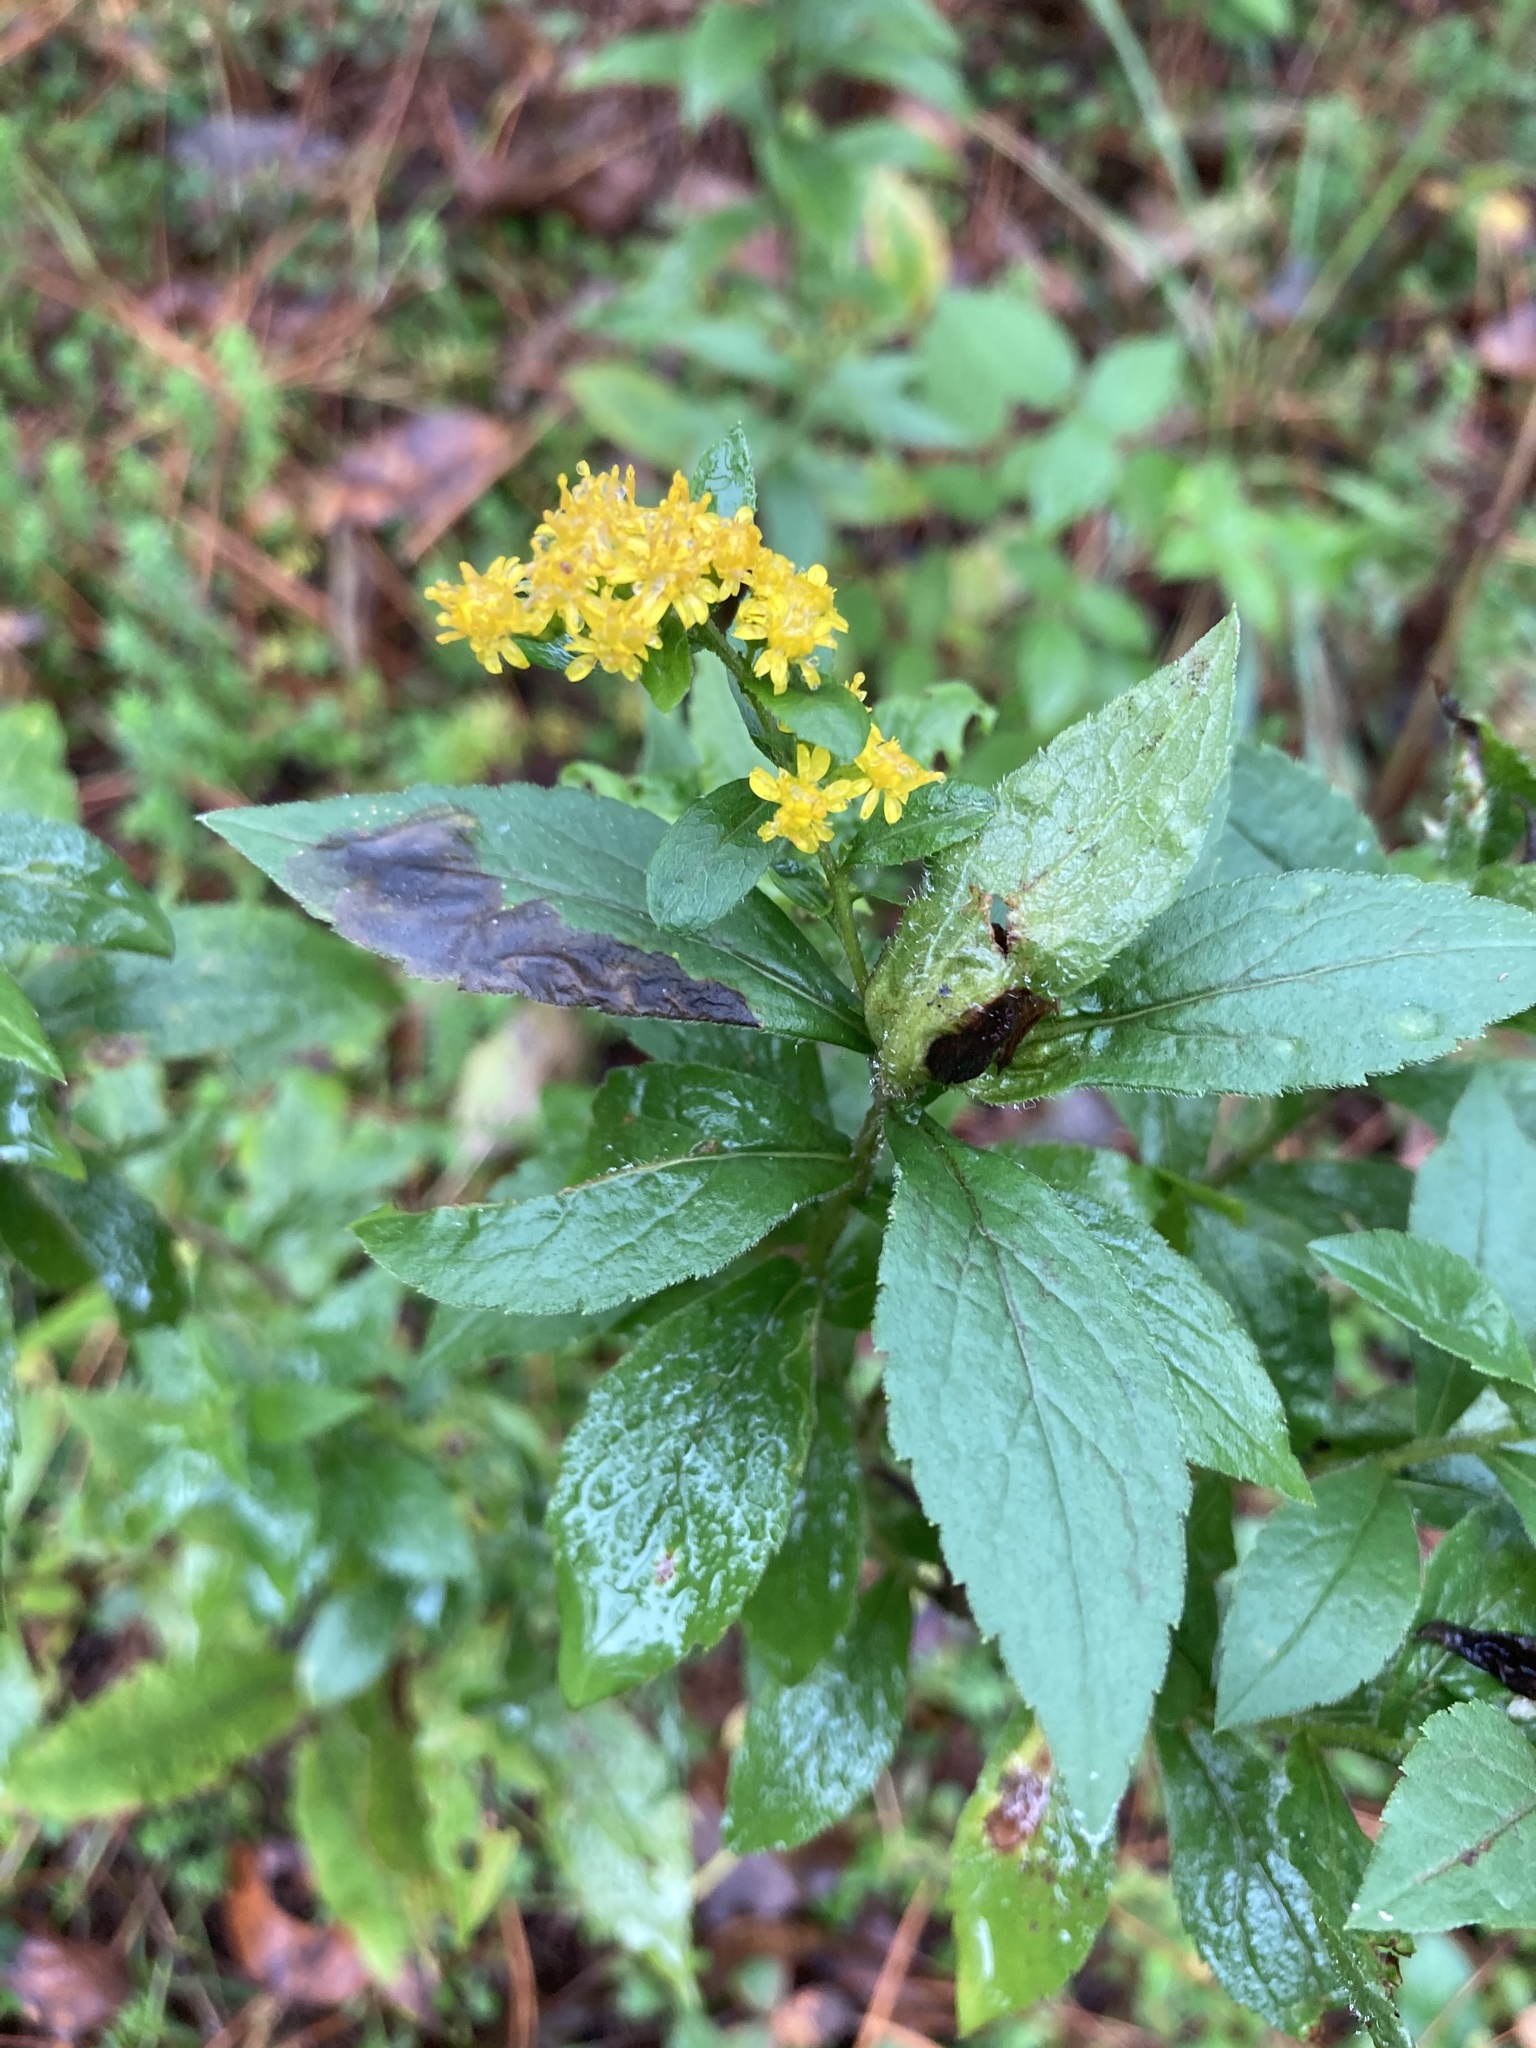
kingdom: Plantae
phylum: Tracheophyta
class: Magnoliopsida
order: Asterales
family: Asteraceae
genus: Solidago
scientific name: Solidago rugosa
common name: Rough-stemmed goldenrod
